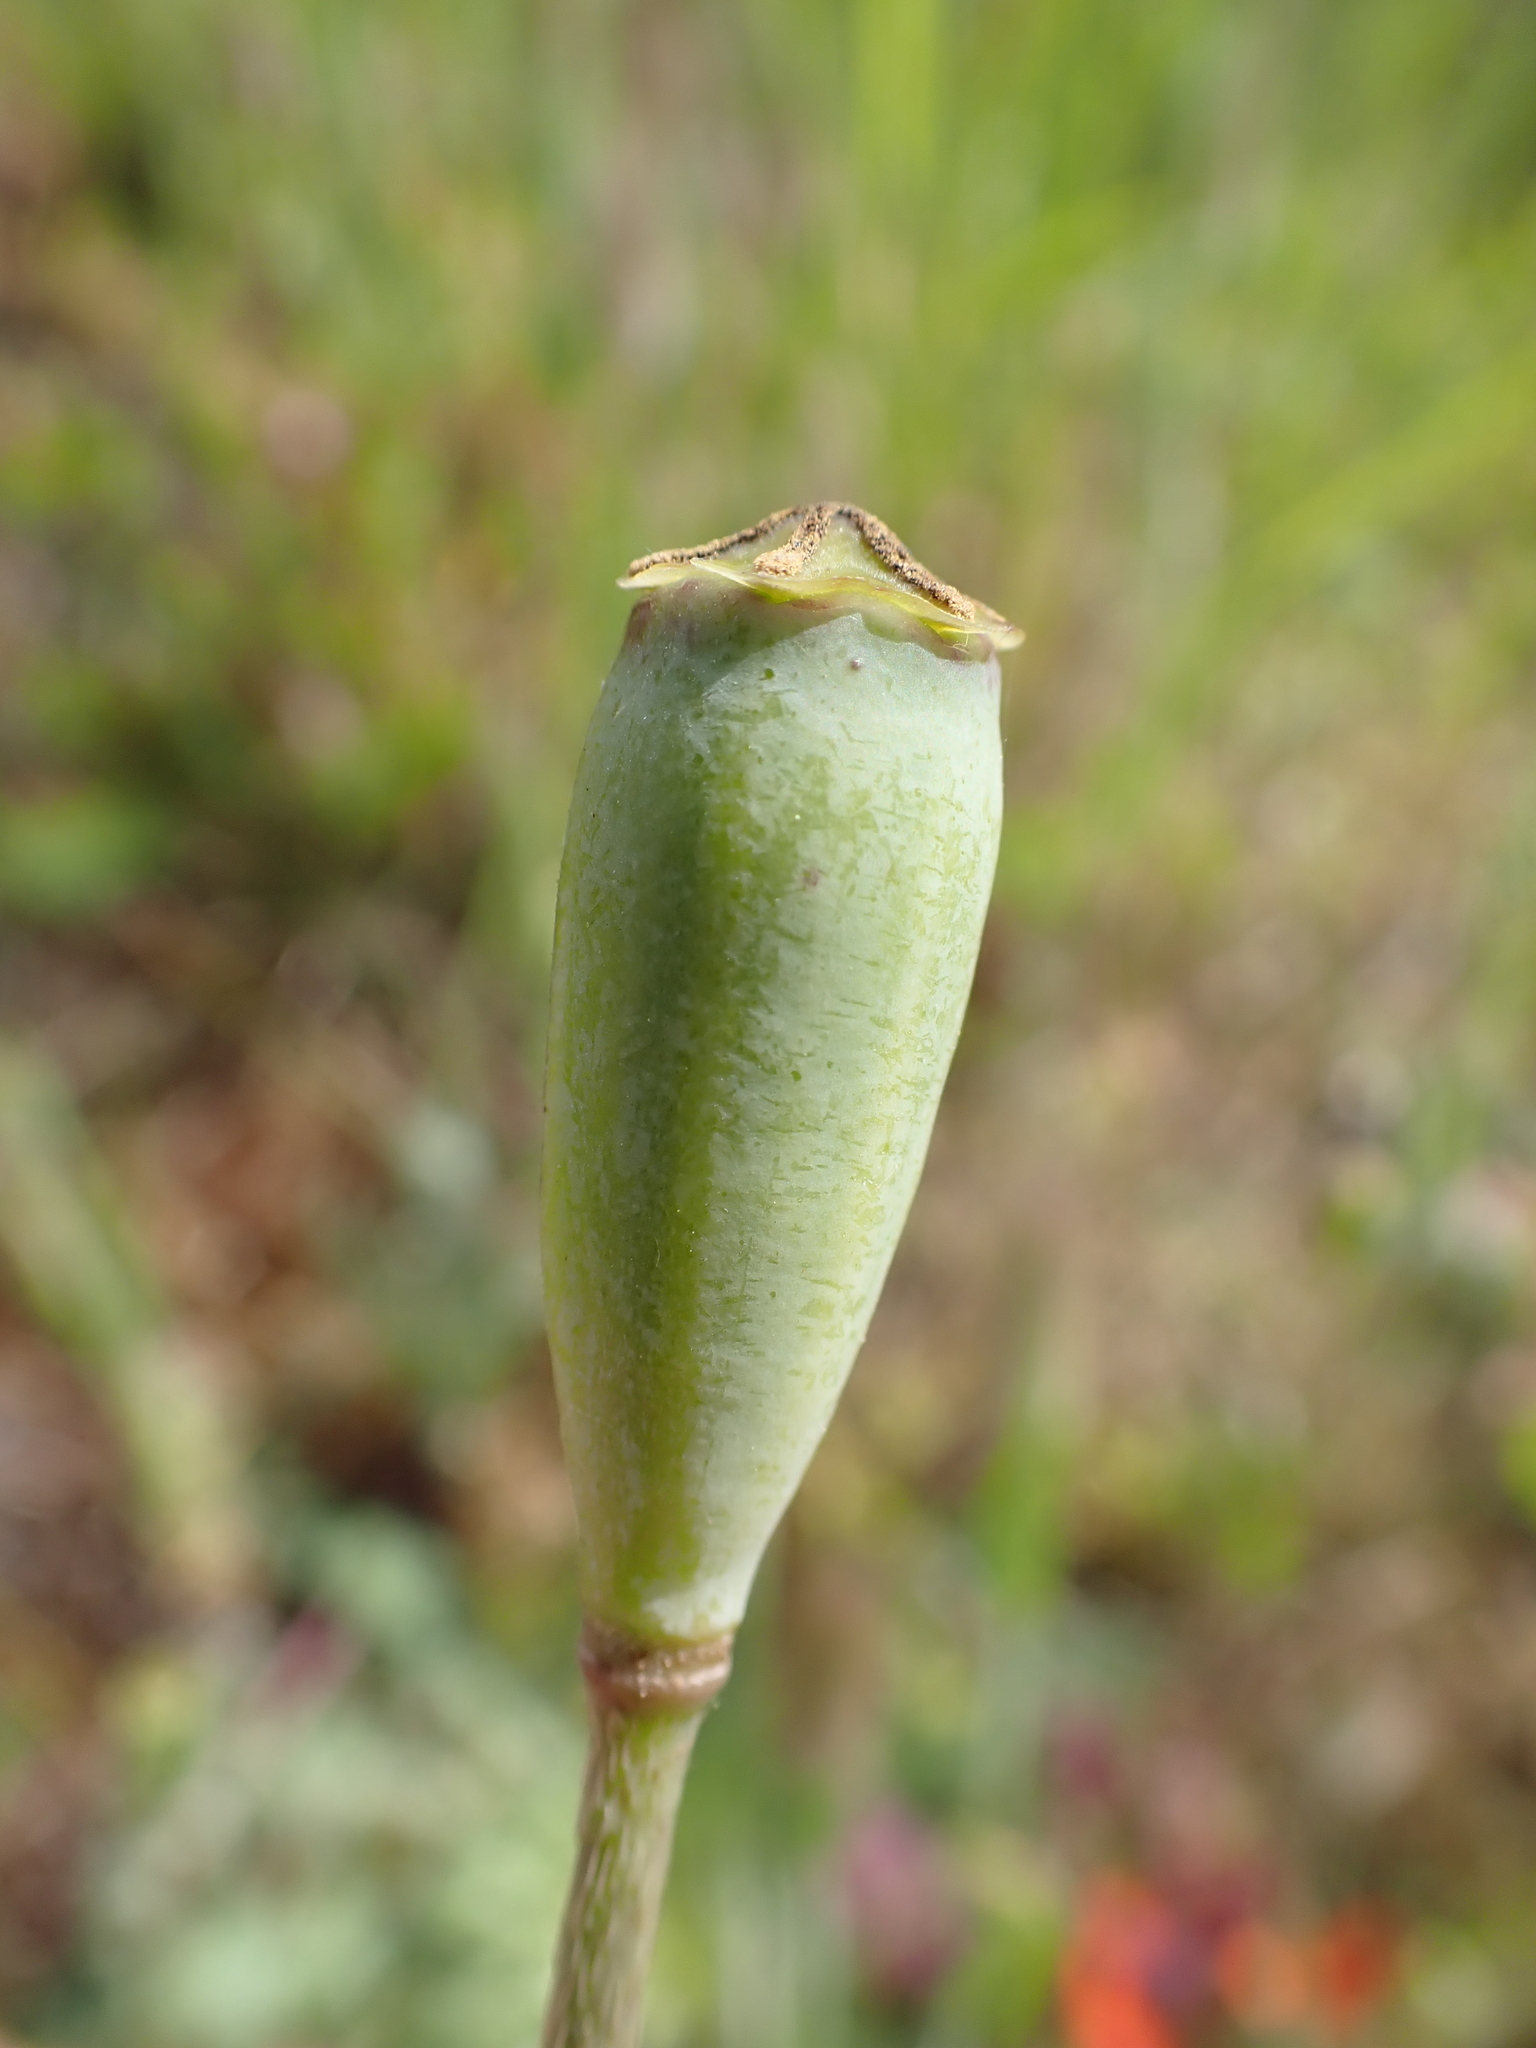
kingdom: Plantae
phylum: Tracheophyta
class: Magnoliopsida
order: Ranunculales
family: Papaveraceae
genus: Papaver
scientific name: Papaver dubium
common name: Long-headed poppy
